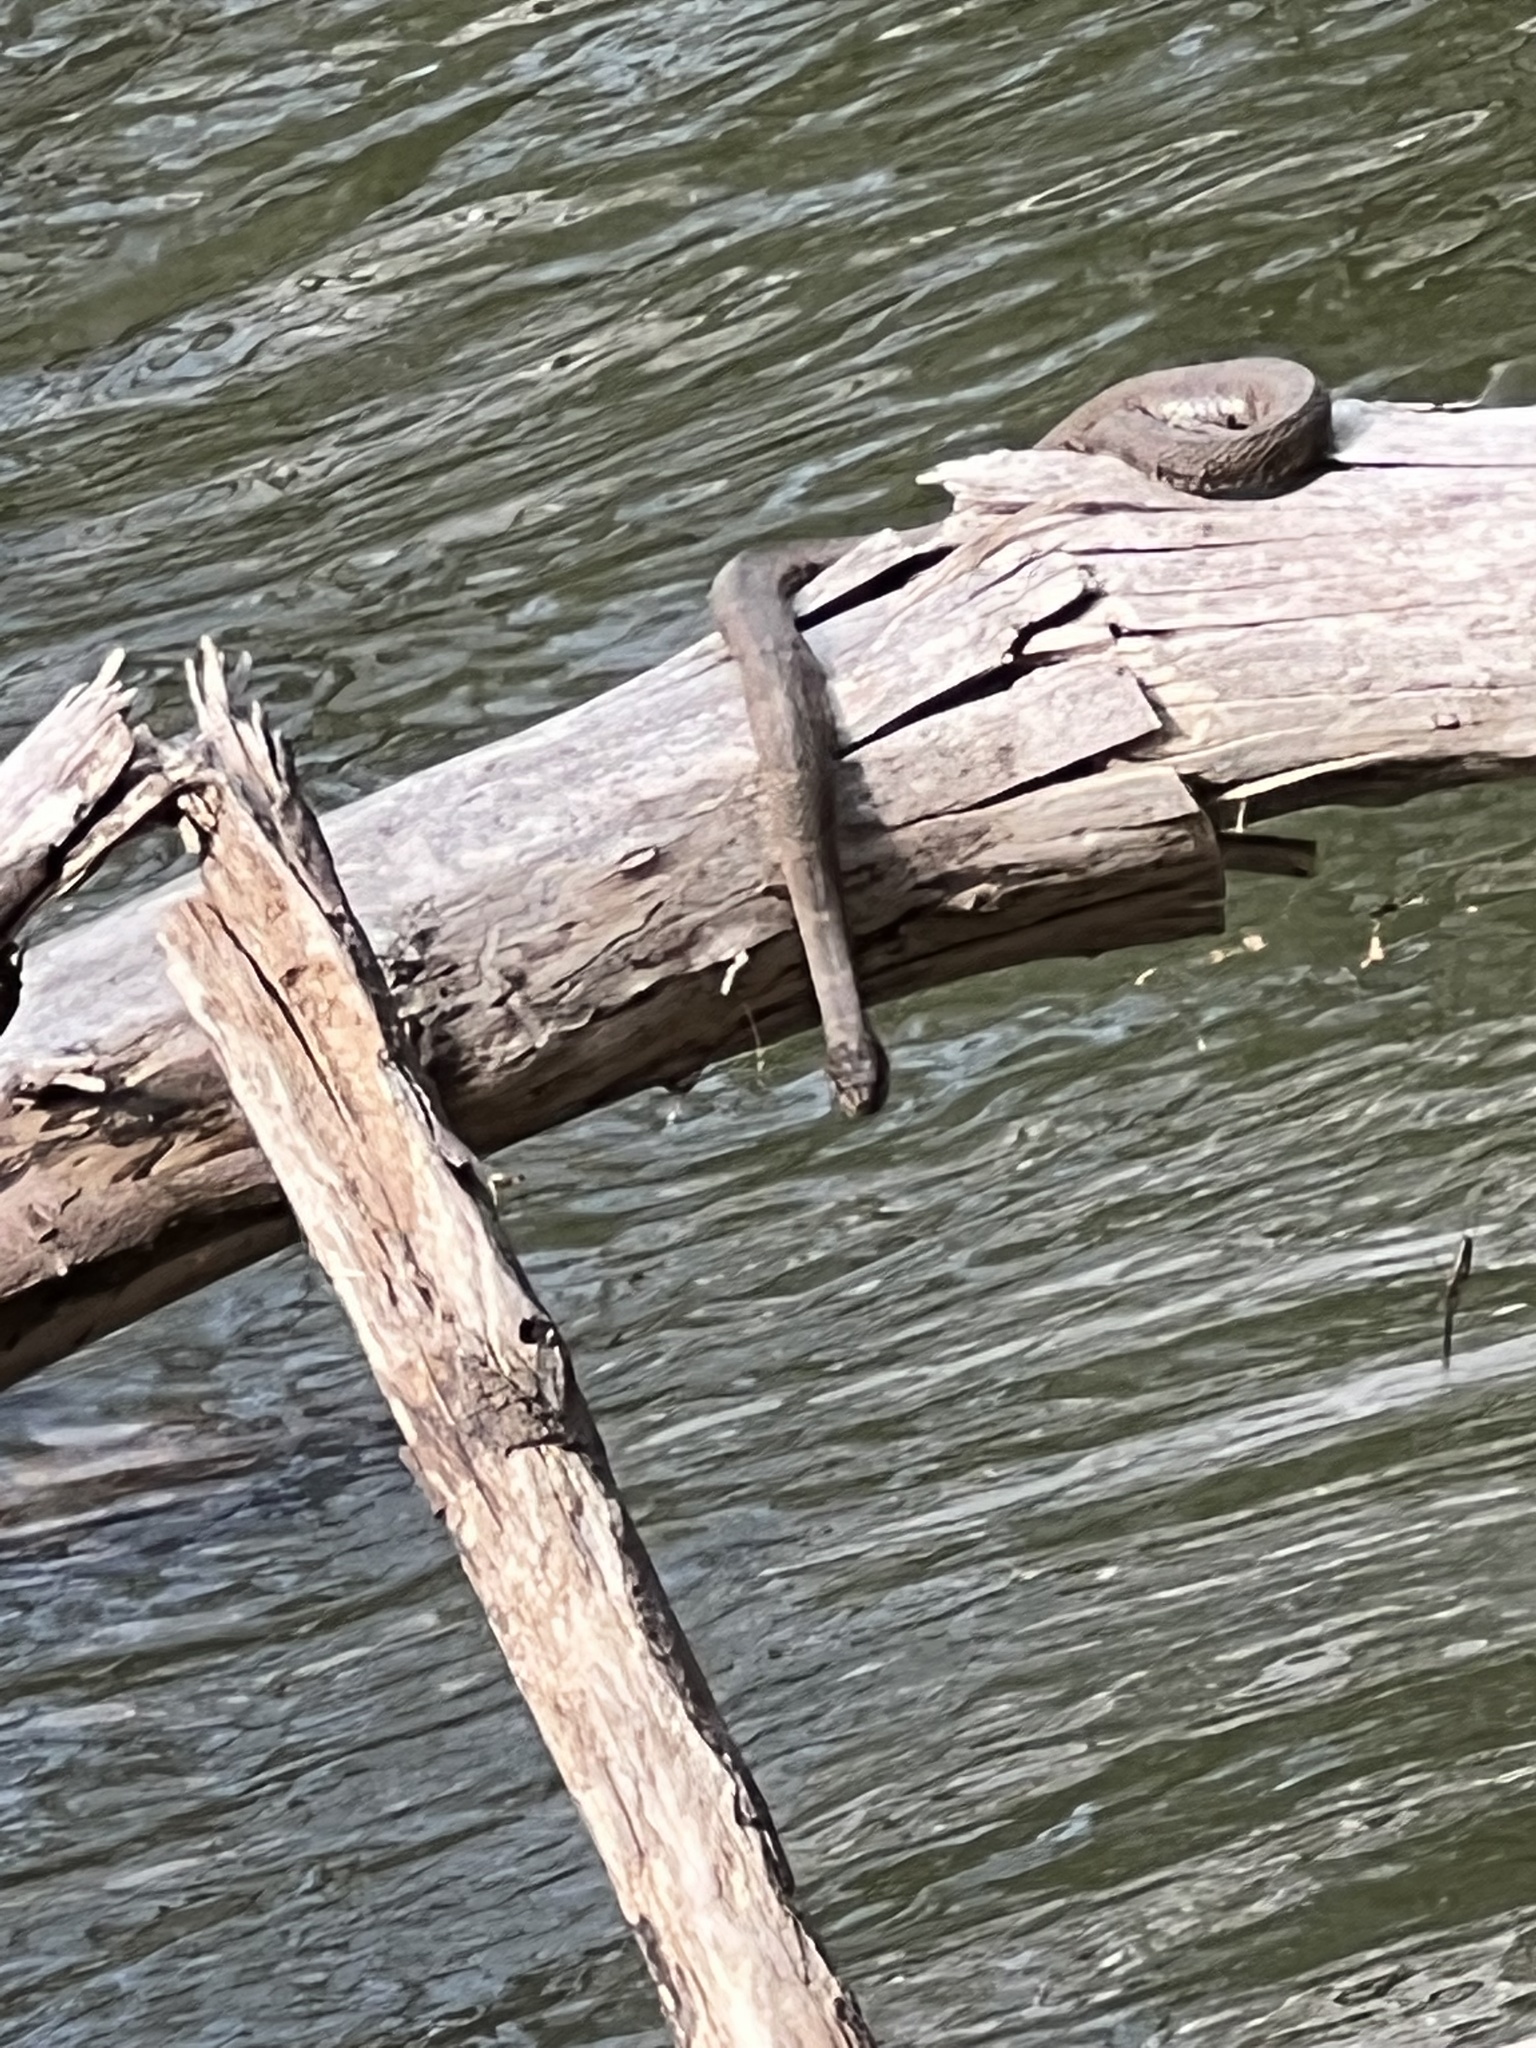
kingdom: Animalia
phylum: Chordata
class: Squamata
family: Colubridae
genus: Nerodia
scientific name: Nerodia sipedon
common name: Northern water snake
